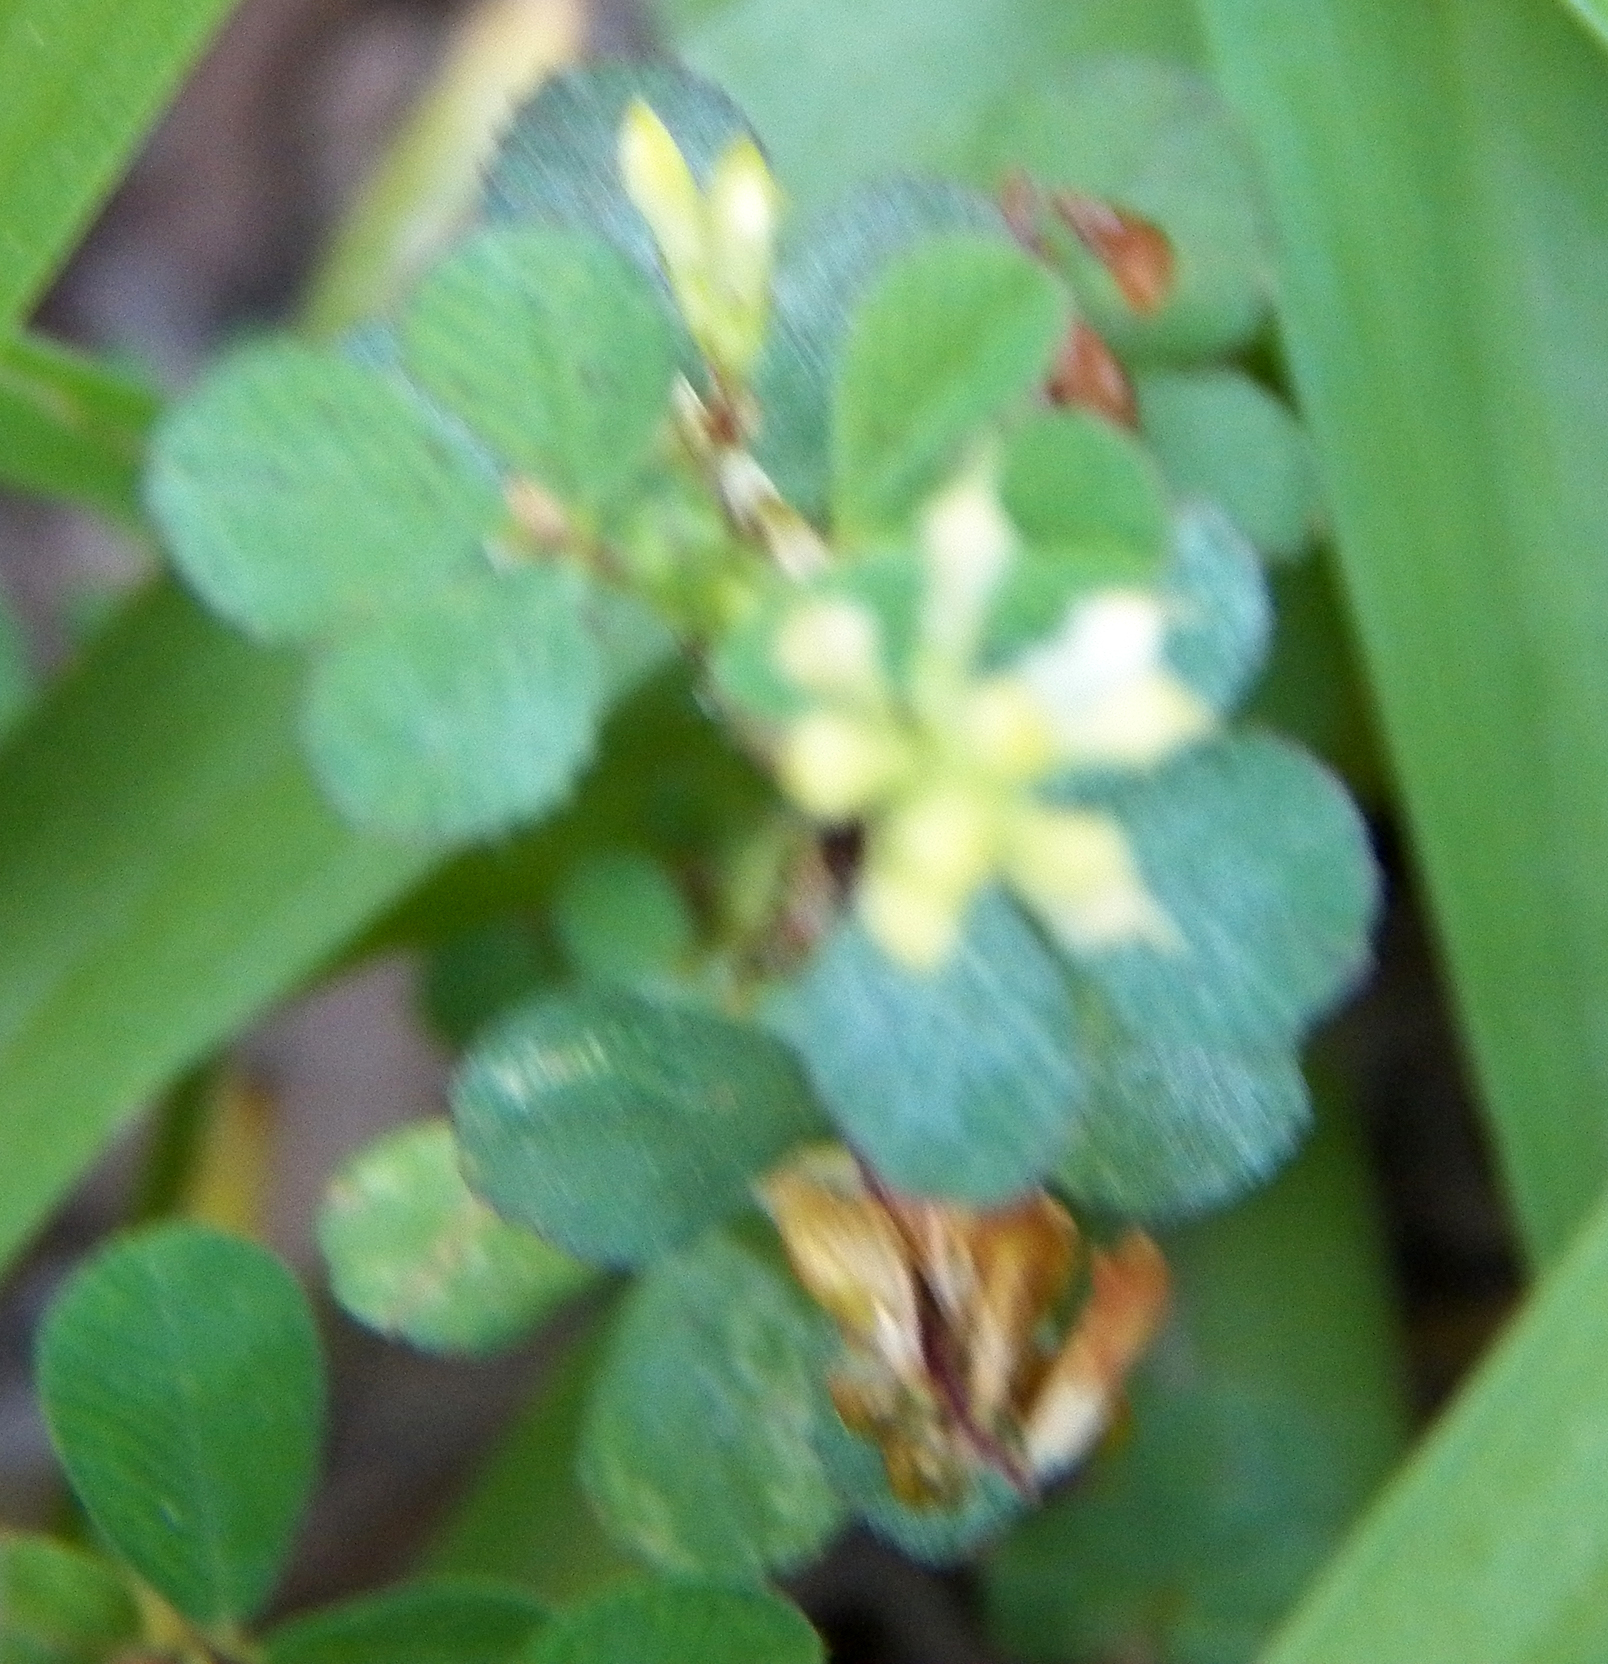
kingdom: Plantae
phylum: Tracheophyta
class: Magnoliopsida
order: Fabales
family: Fabaceae
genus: Trifolium
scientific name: Trifolium dubium
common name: Suckling clover
